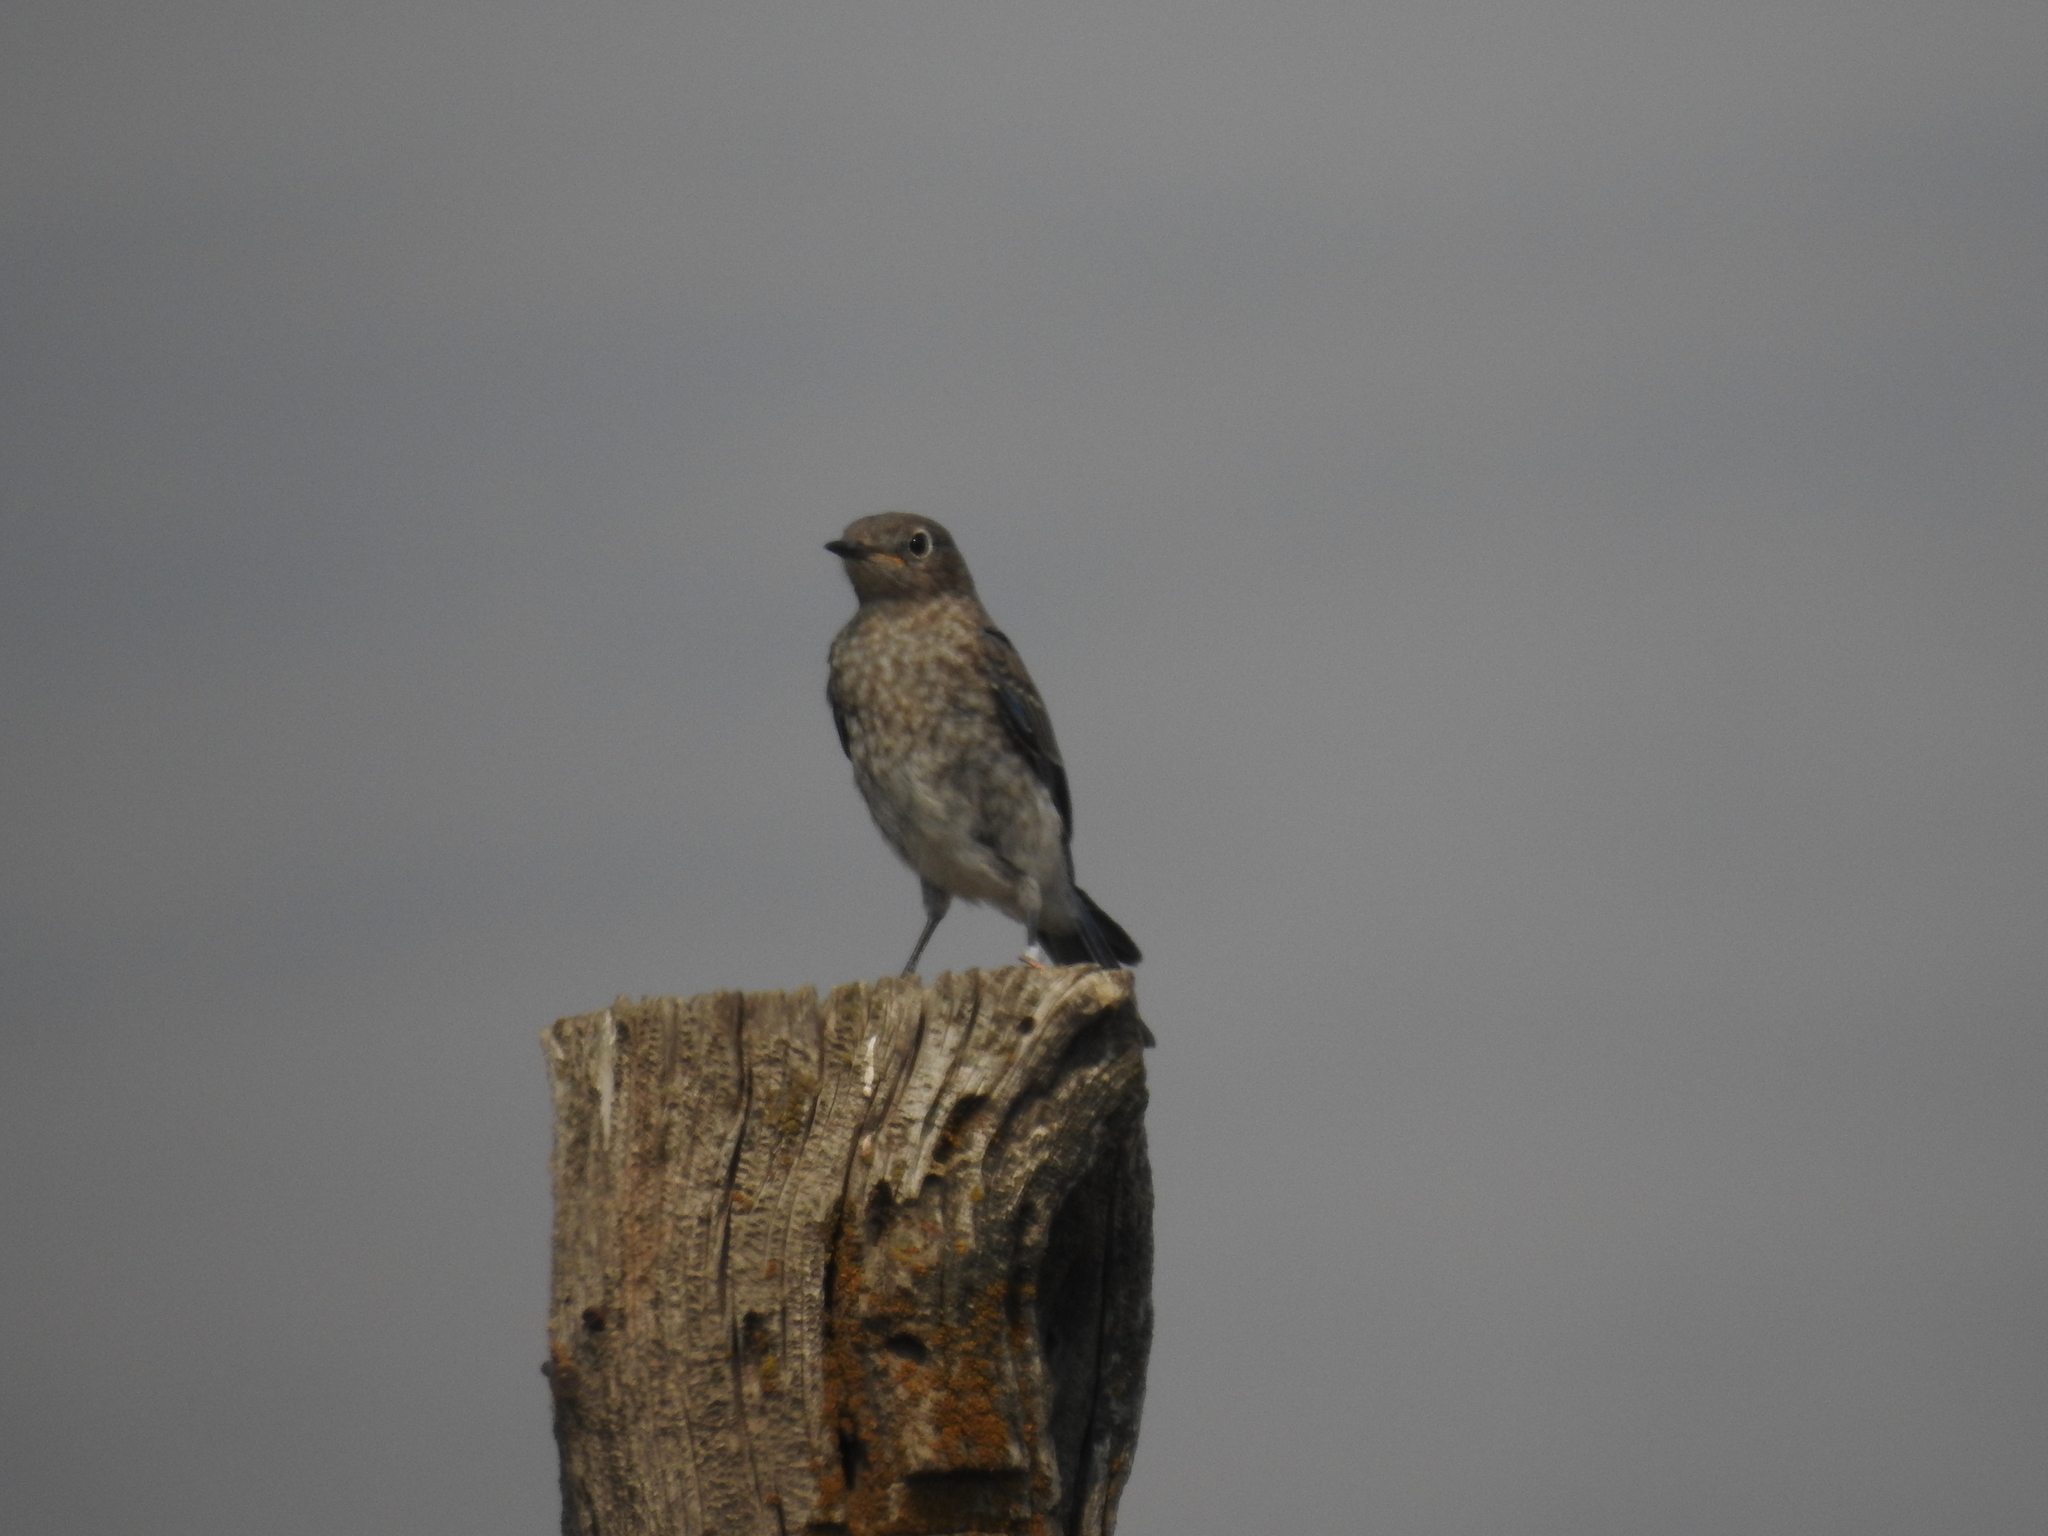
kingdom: Animalia
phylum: Chordata
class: Aves
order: Passeriformes
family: Turdidae
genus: Sialia
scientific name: Sialia
